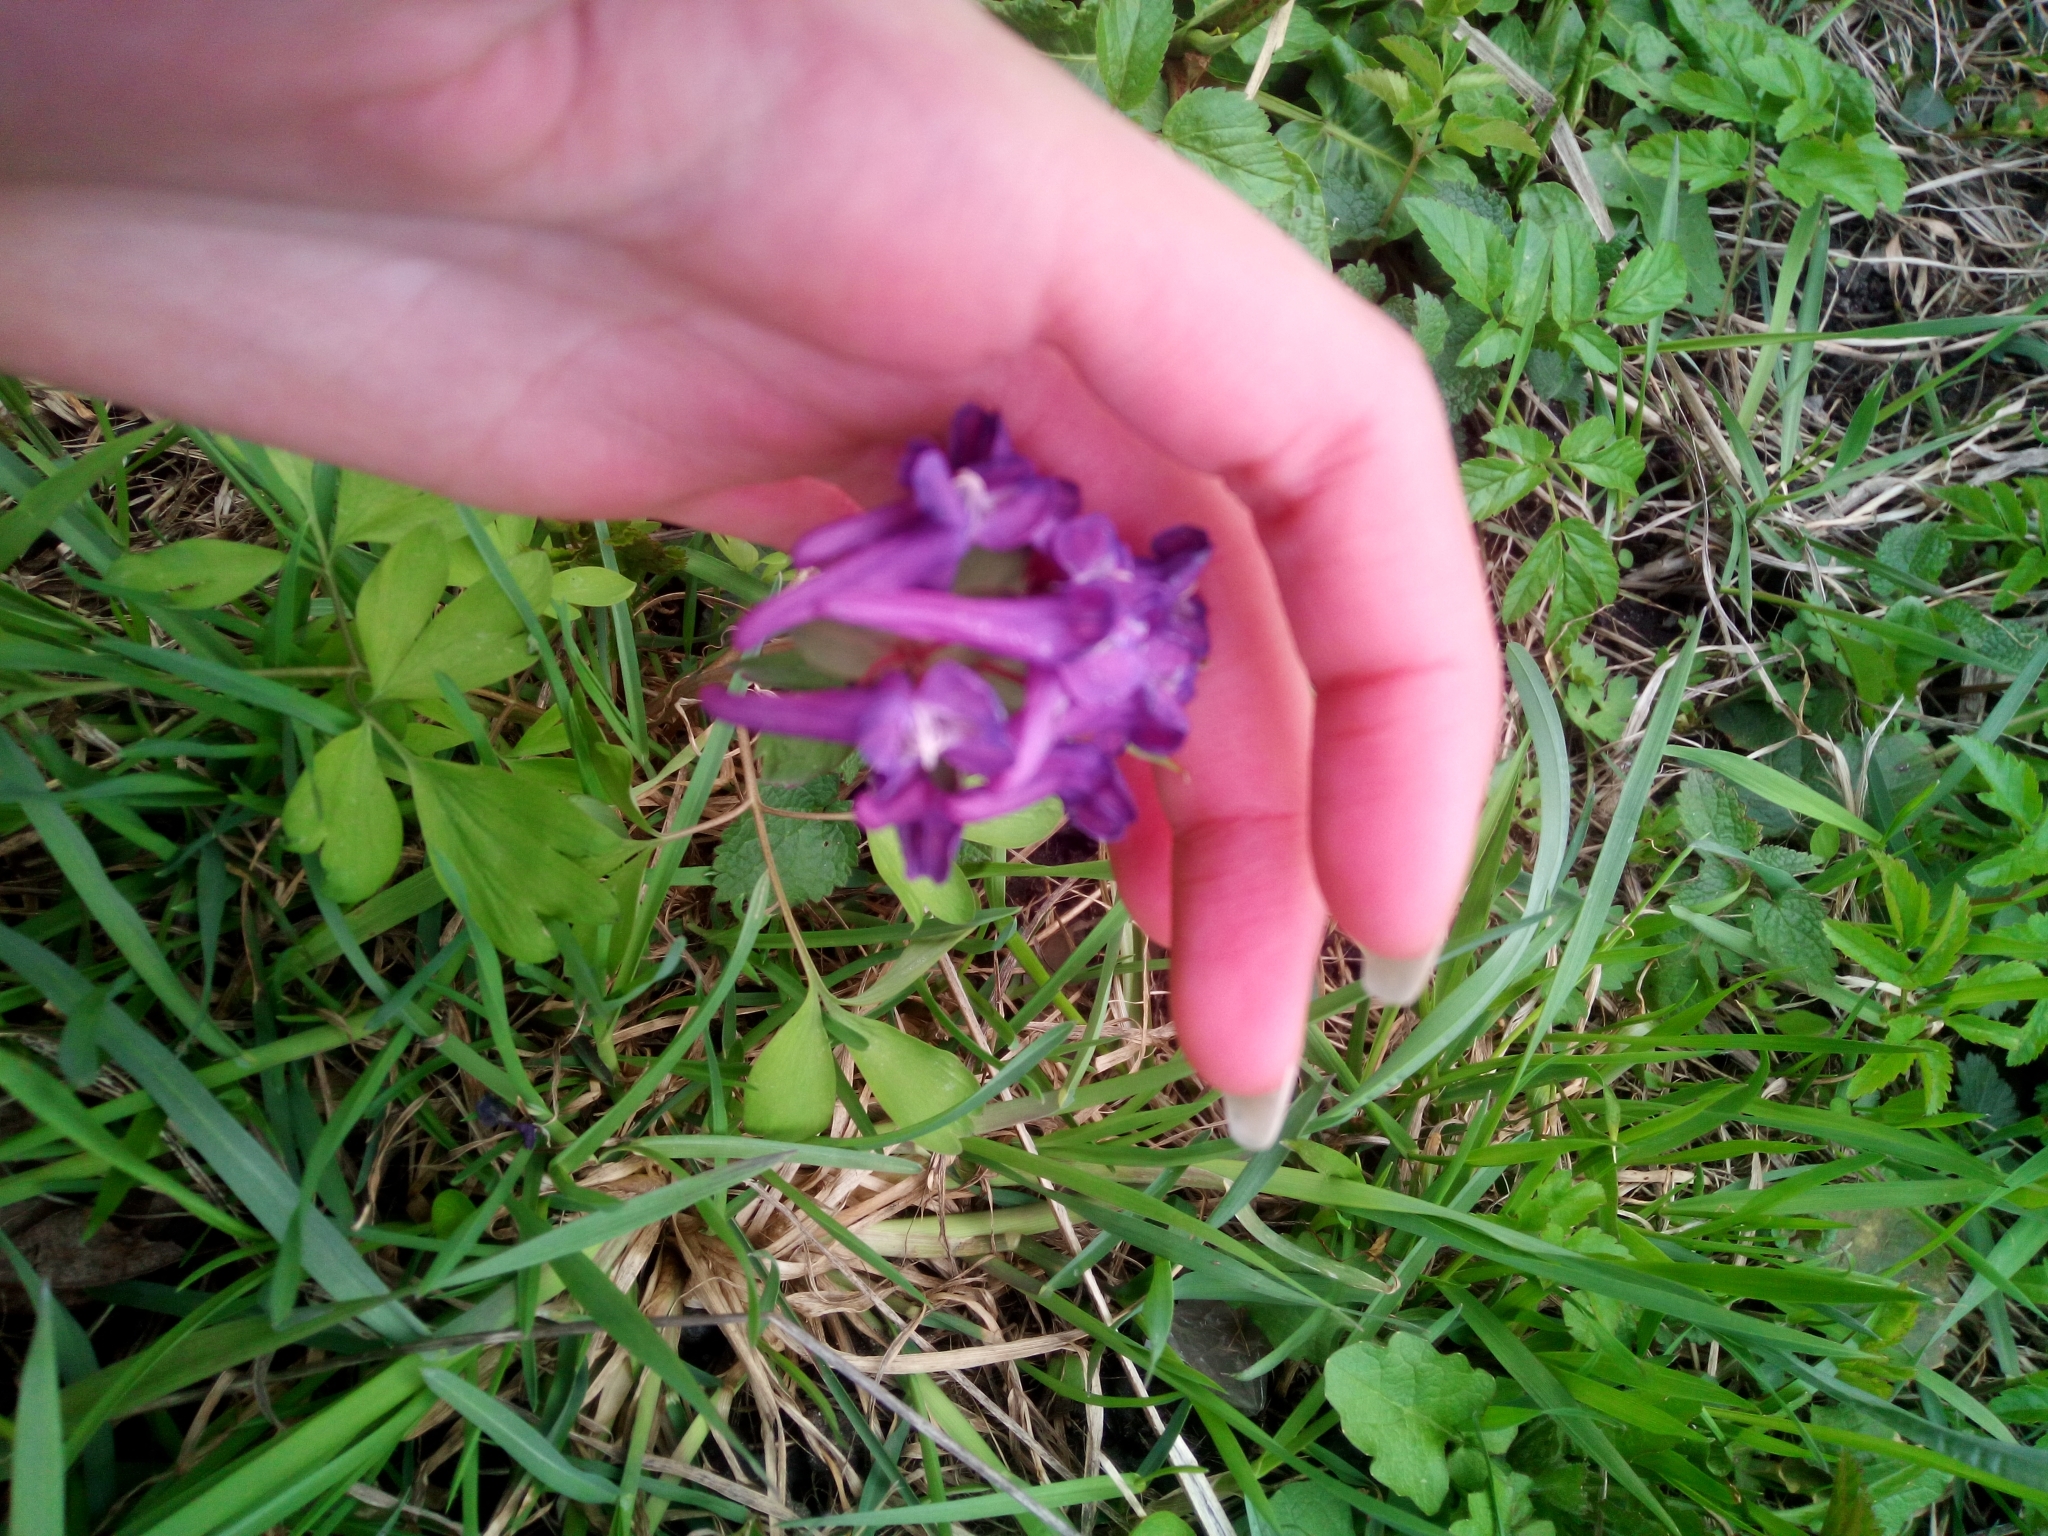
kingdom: Plantae
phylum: Tracheophyta
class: Magnoliopsida
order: Ranunculales
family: Papaveraceae
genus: Corydalis
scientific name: Corydalis solida
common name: Bird-in-a-bush
